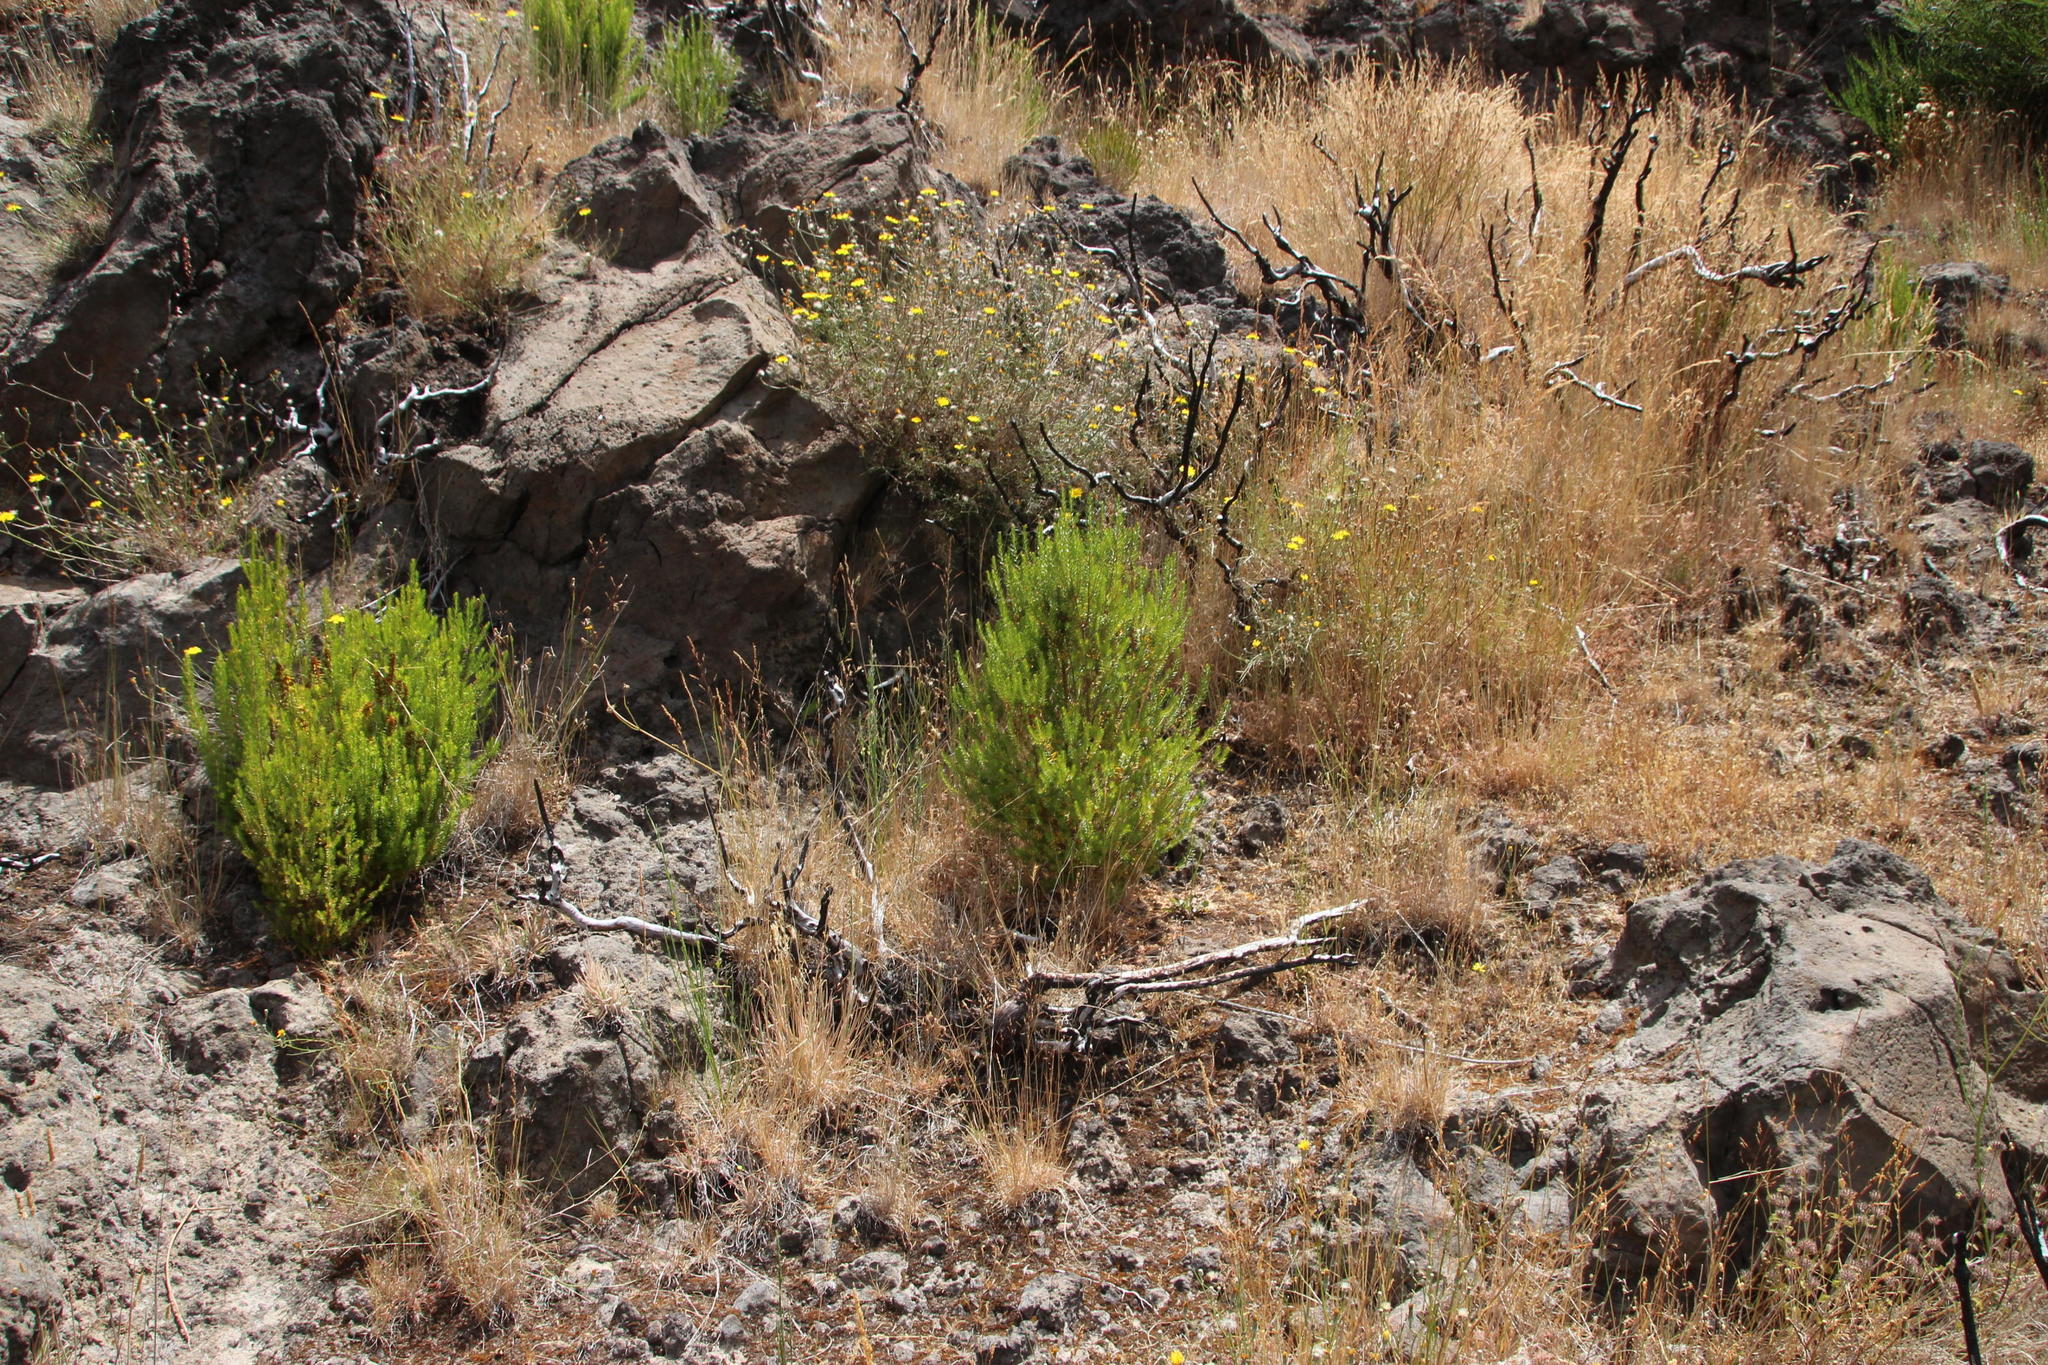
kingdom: Plantae
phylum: Tracheophyta
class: Magnoliopsida
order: Ericales
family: Ericaceae
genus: Erica
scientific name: Erica platycodon
